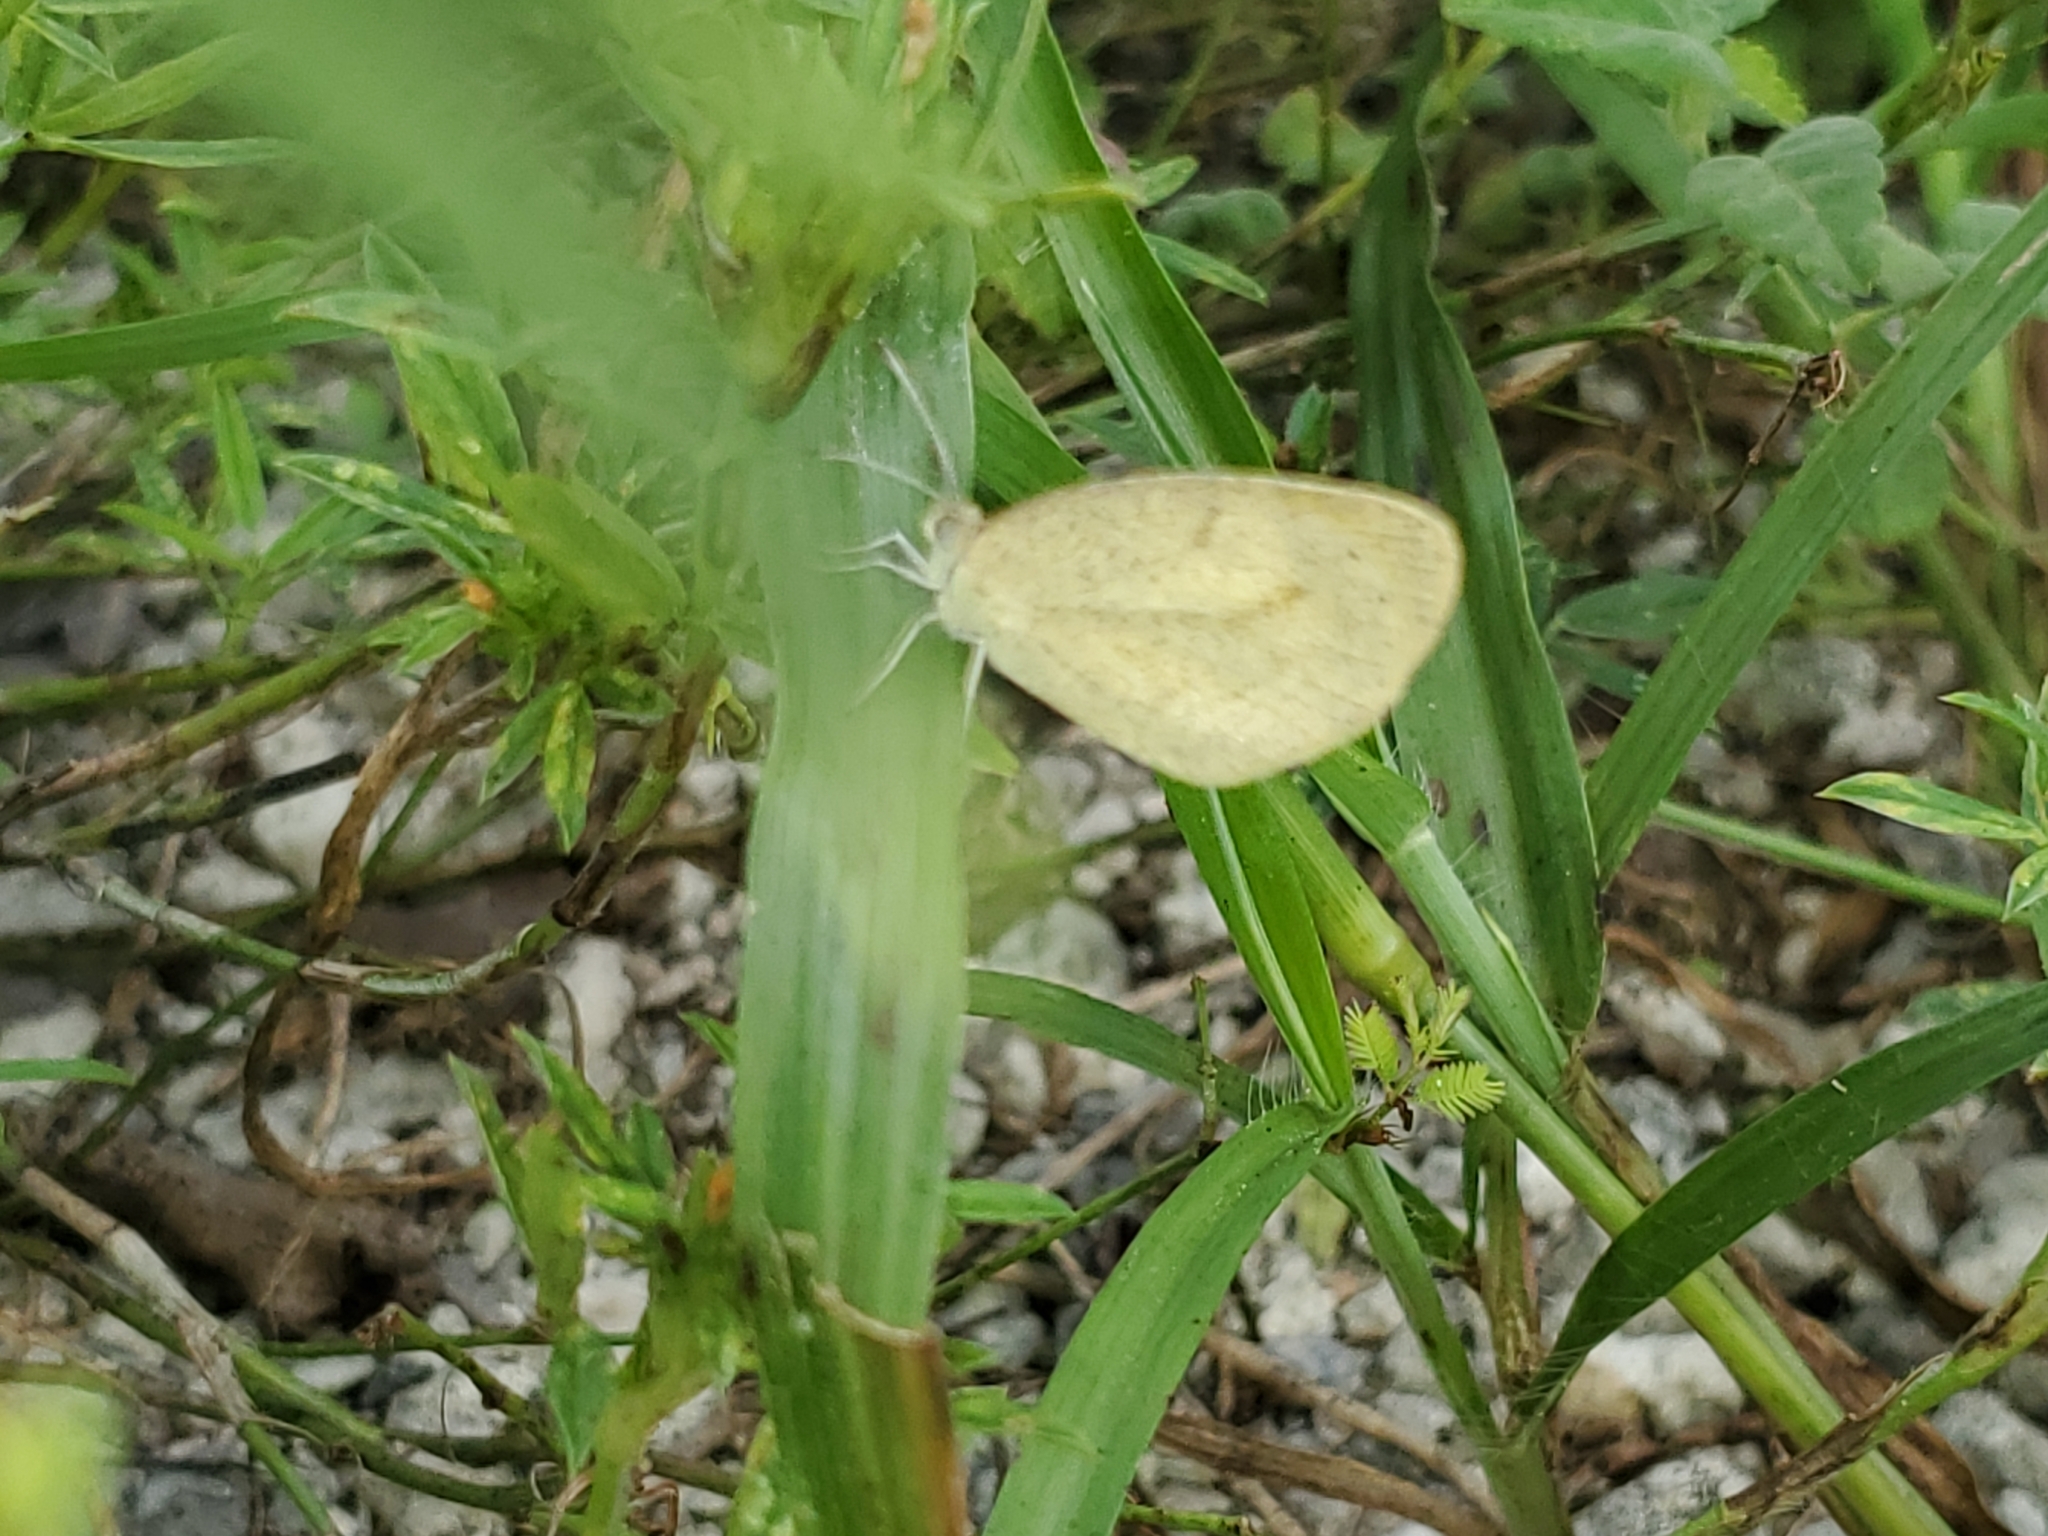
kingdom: Animalia
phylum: Arthropoda
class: Insecta
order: Lepidoptera
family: Pieridae
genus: Eurema
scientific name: Eurema daira
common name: Barred sulphur
